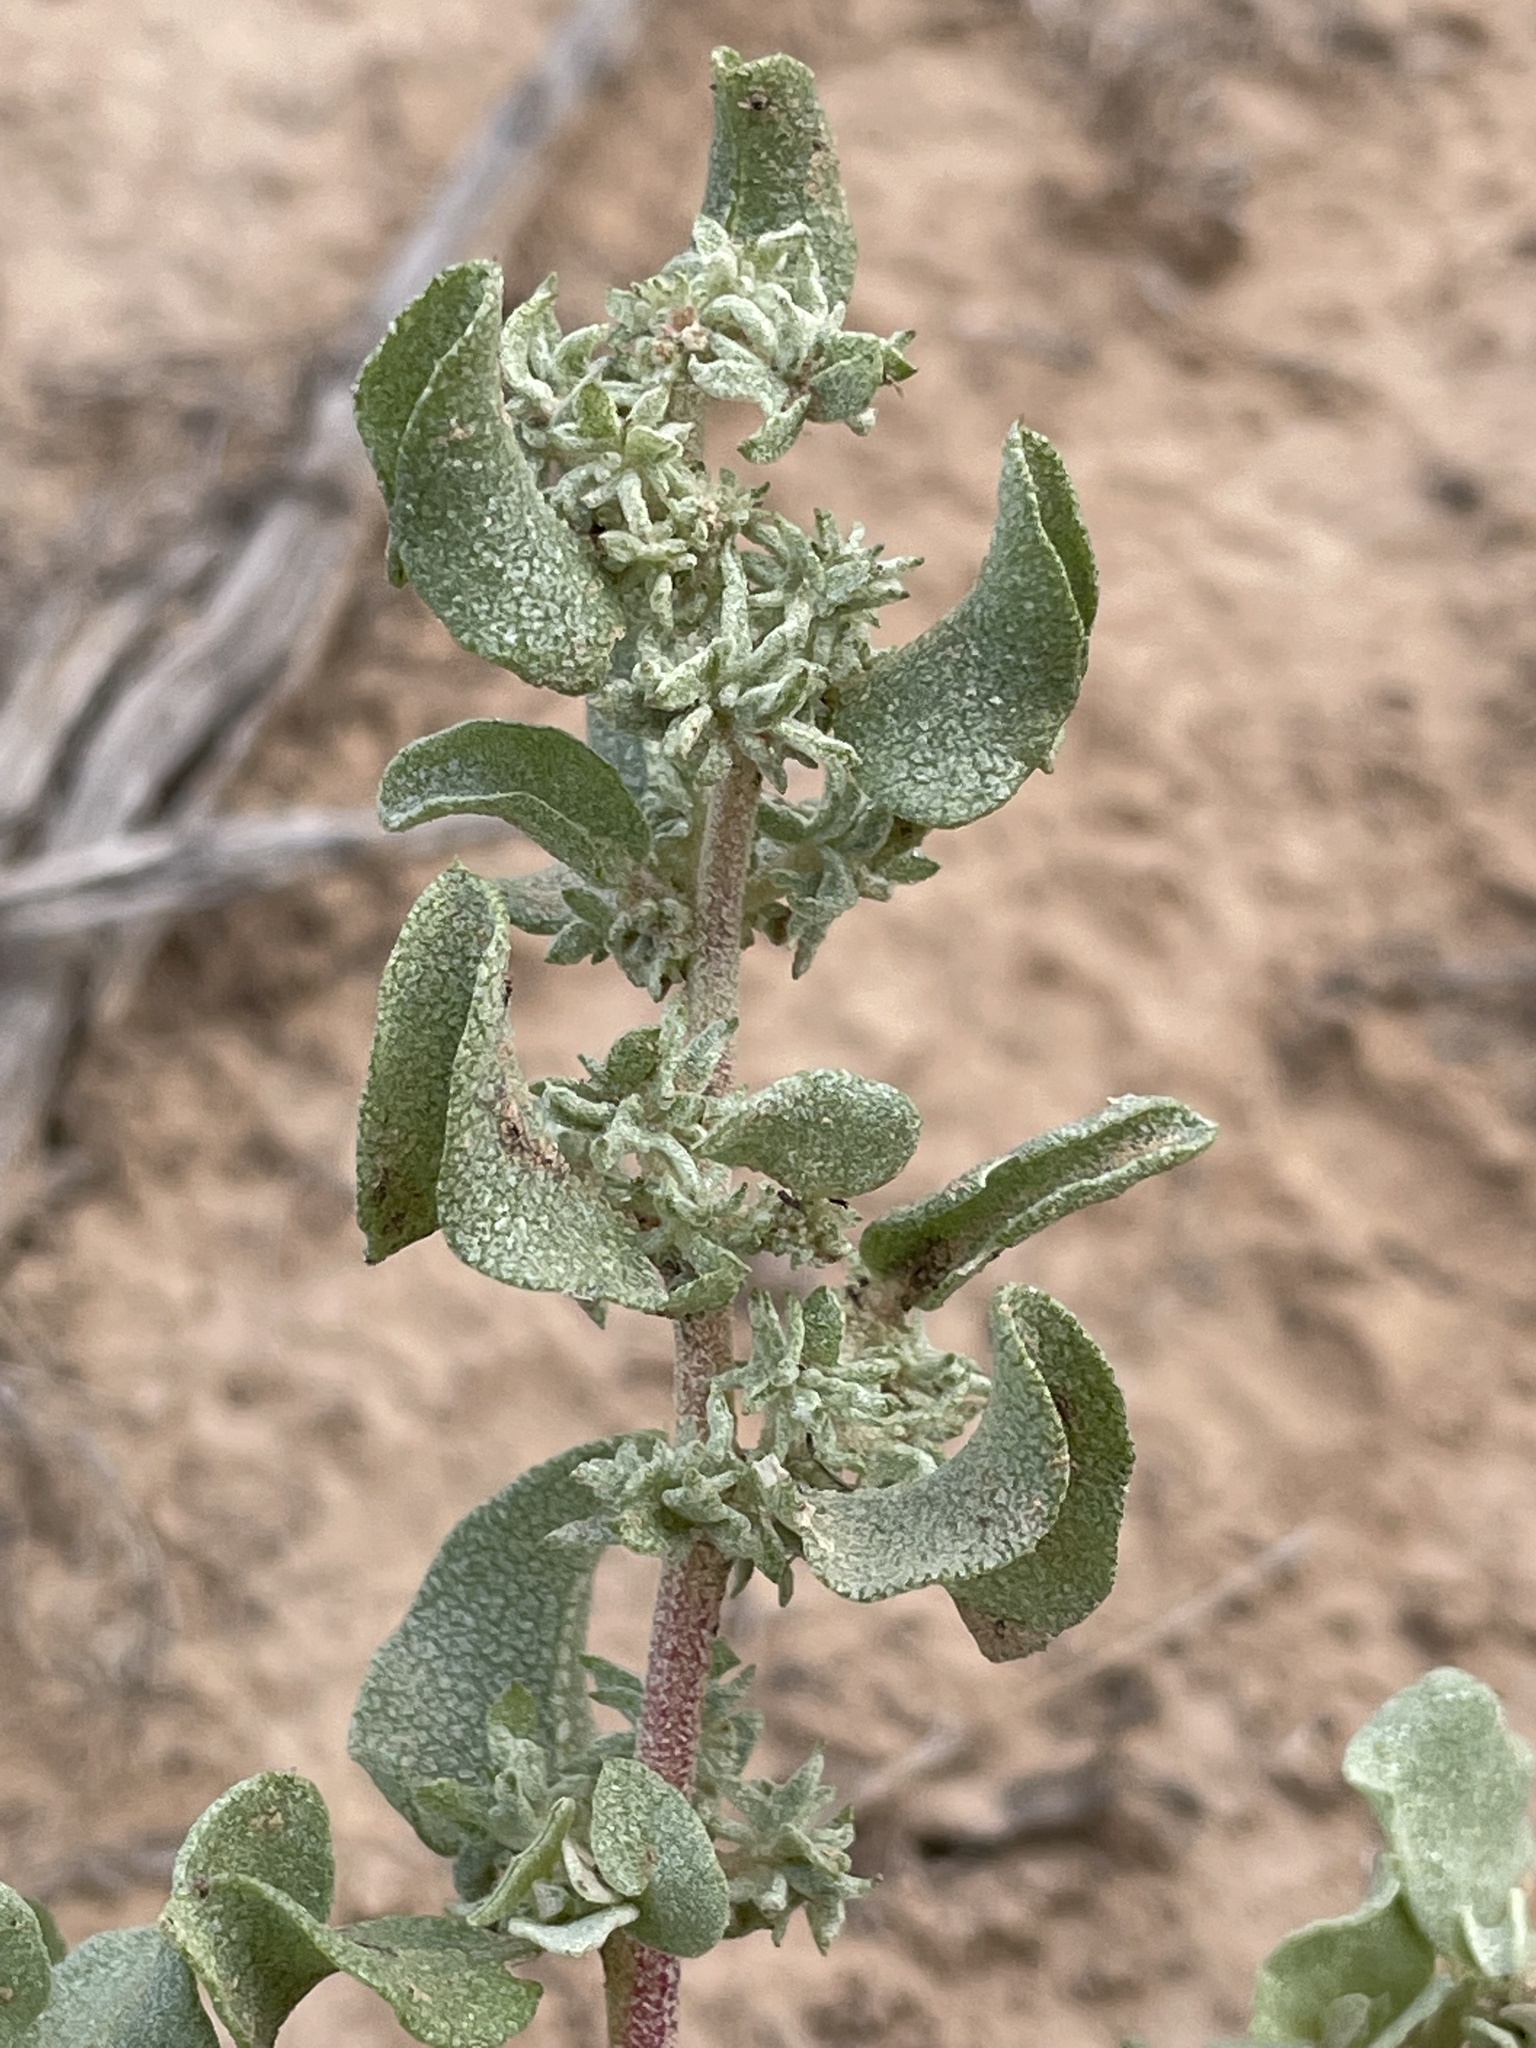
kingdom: Plantae
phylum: Tracheophyta
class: Magnoliopsida
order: Caryophyllales
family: Amaranthaceae
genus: Atriplex
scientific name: Atriplex saccaria
